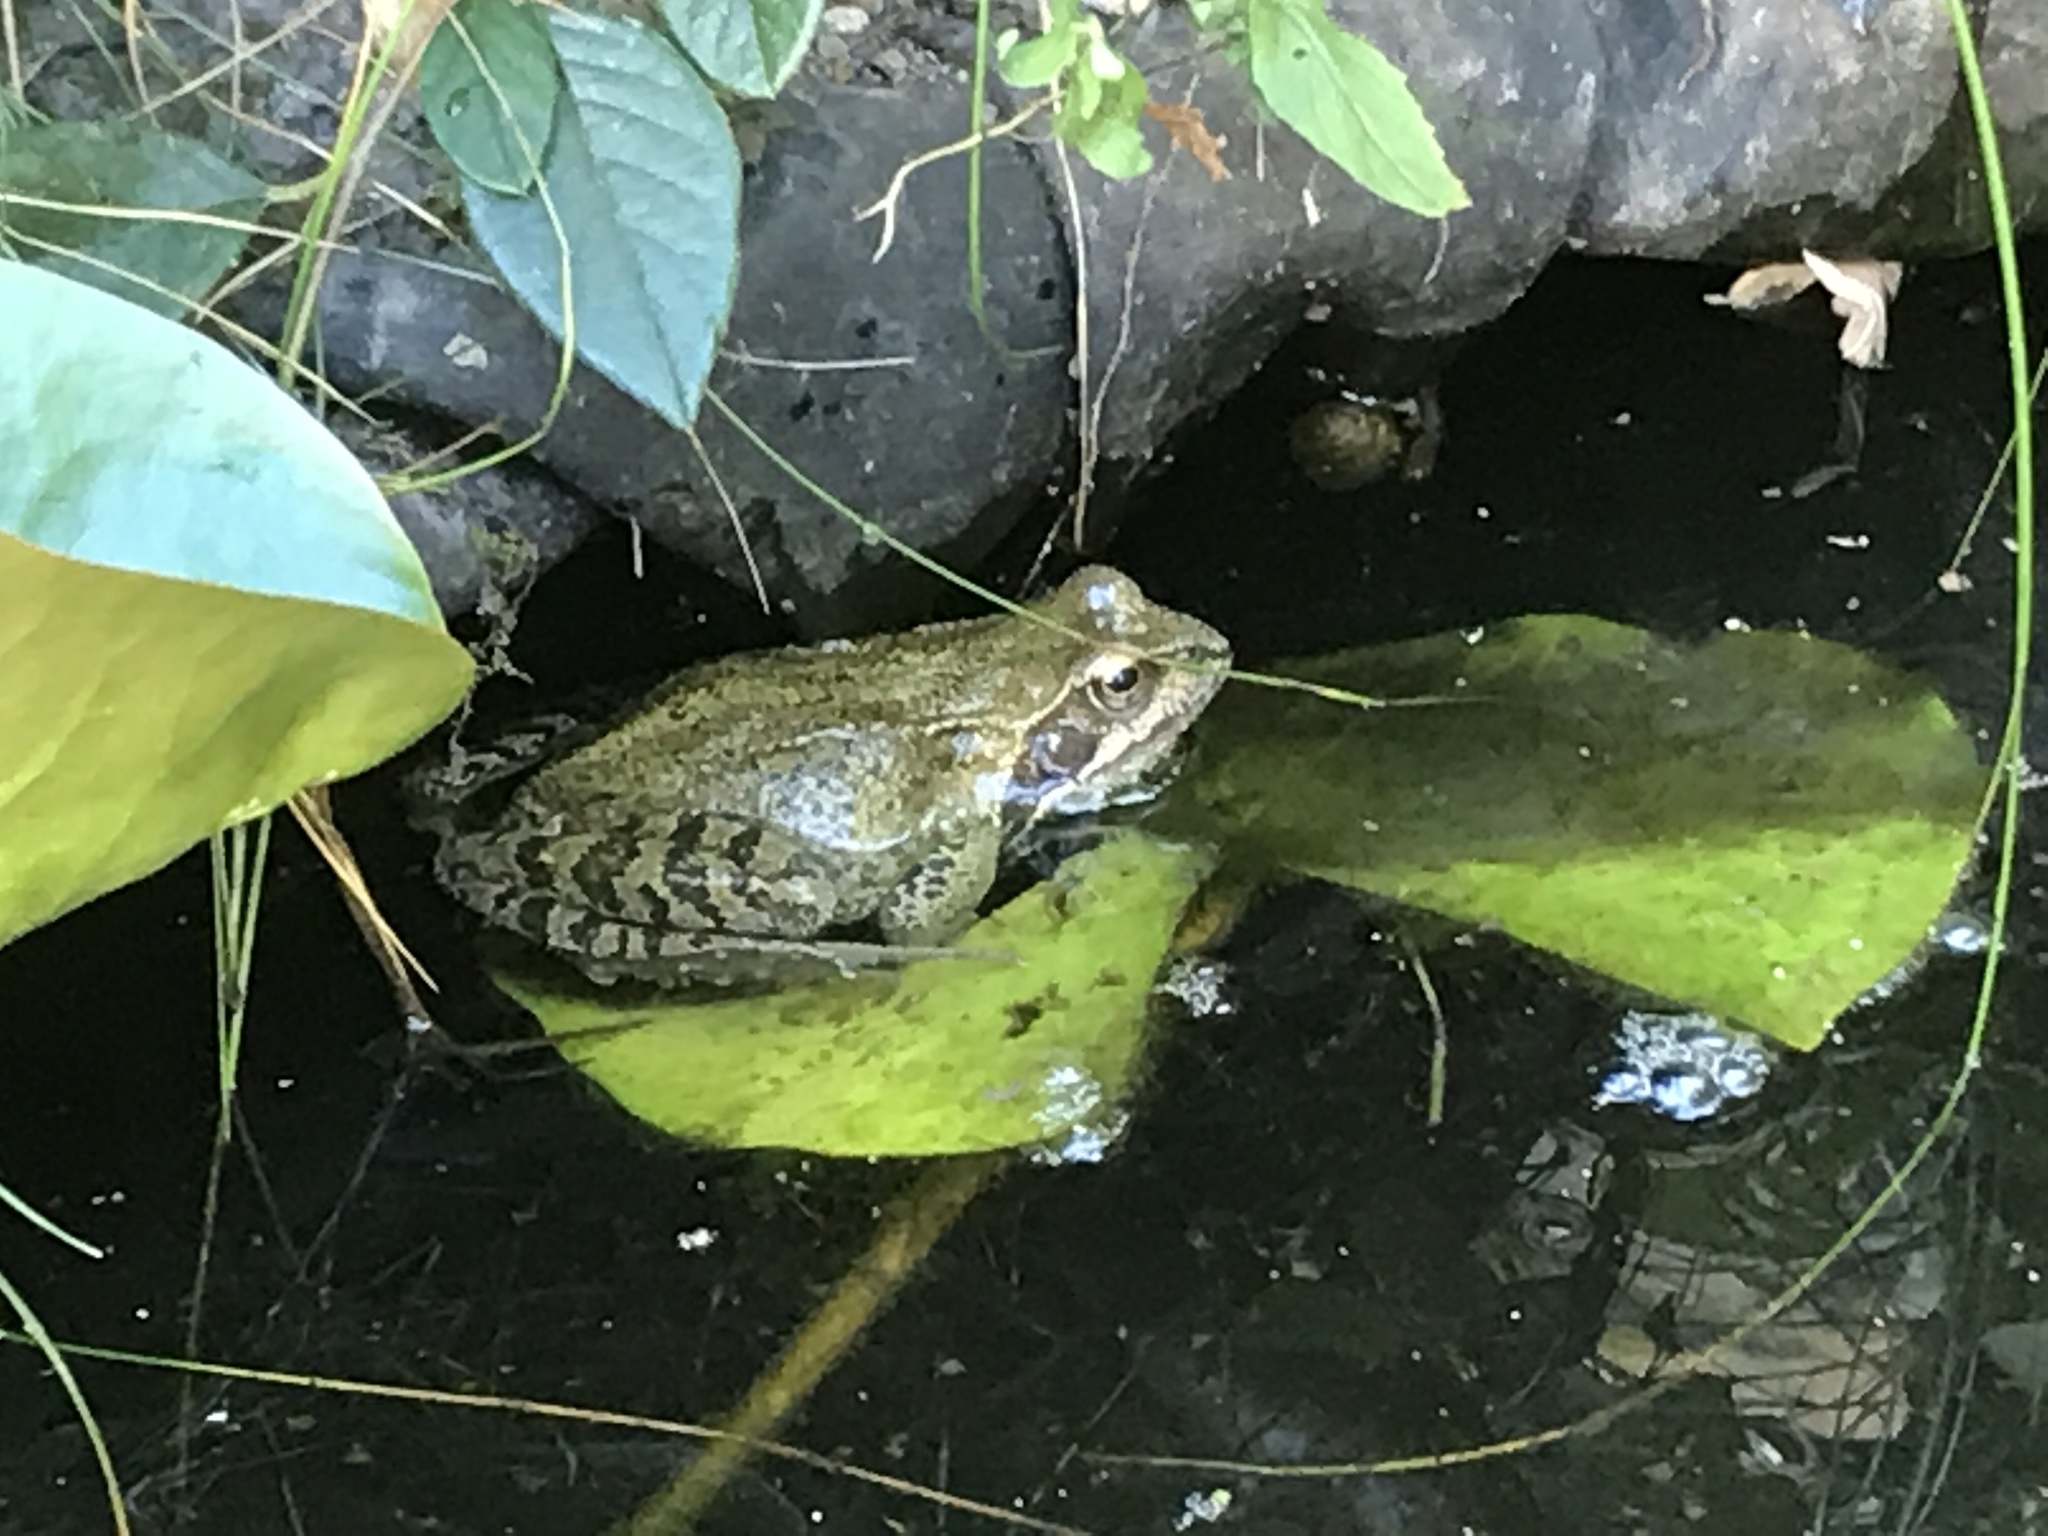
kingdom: Animalia
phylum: Chordata
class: Amphibia
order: Anura
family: Ranidae
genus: Rana
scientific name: Rana temporaria
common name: Common frog
